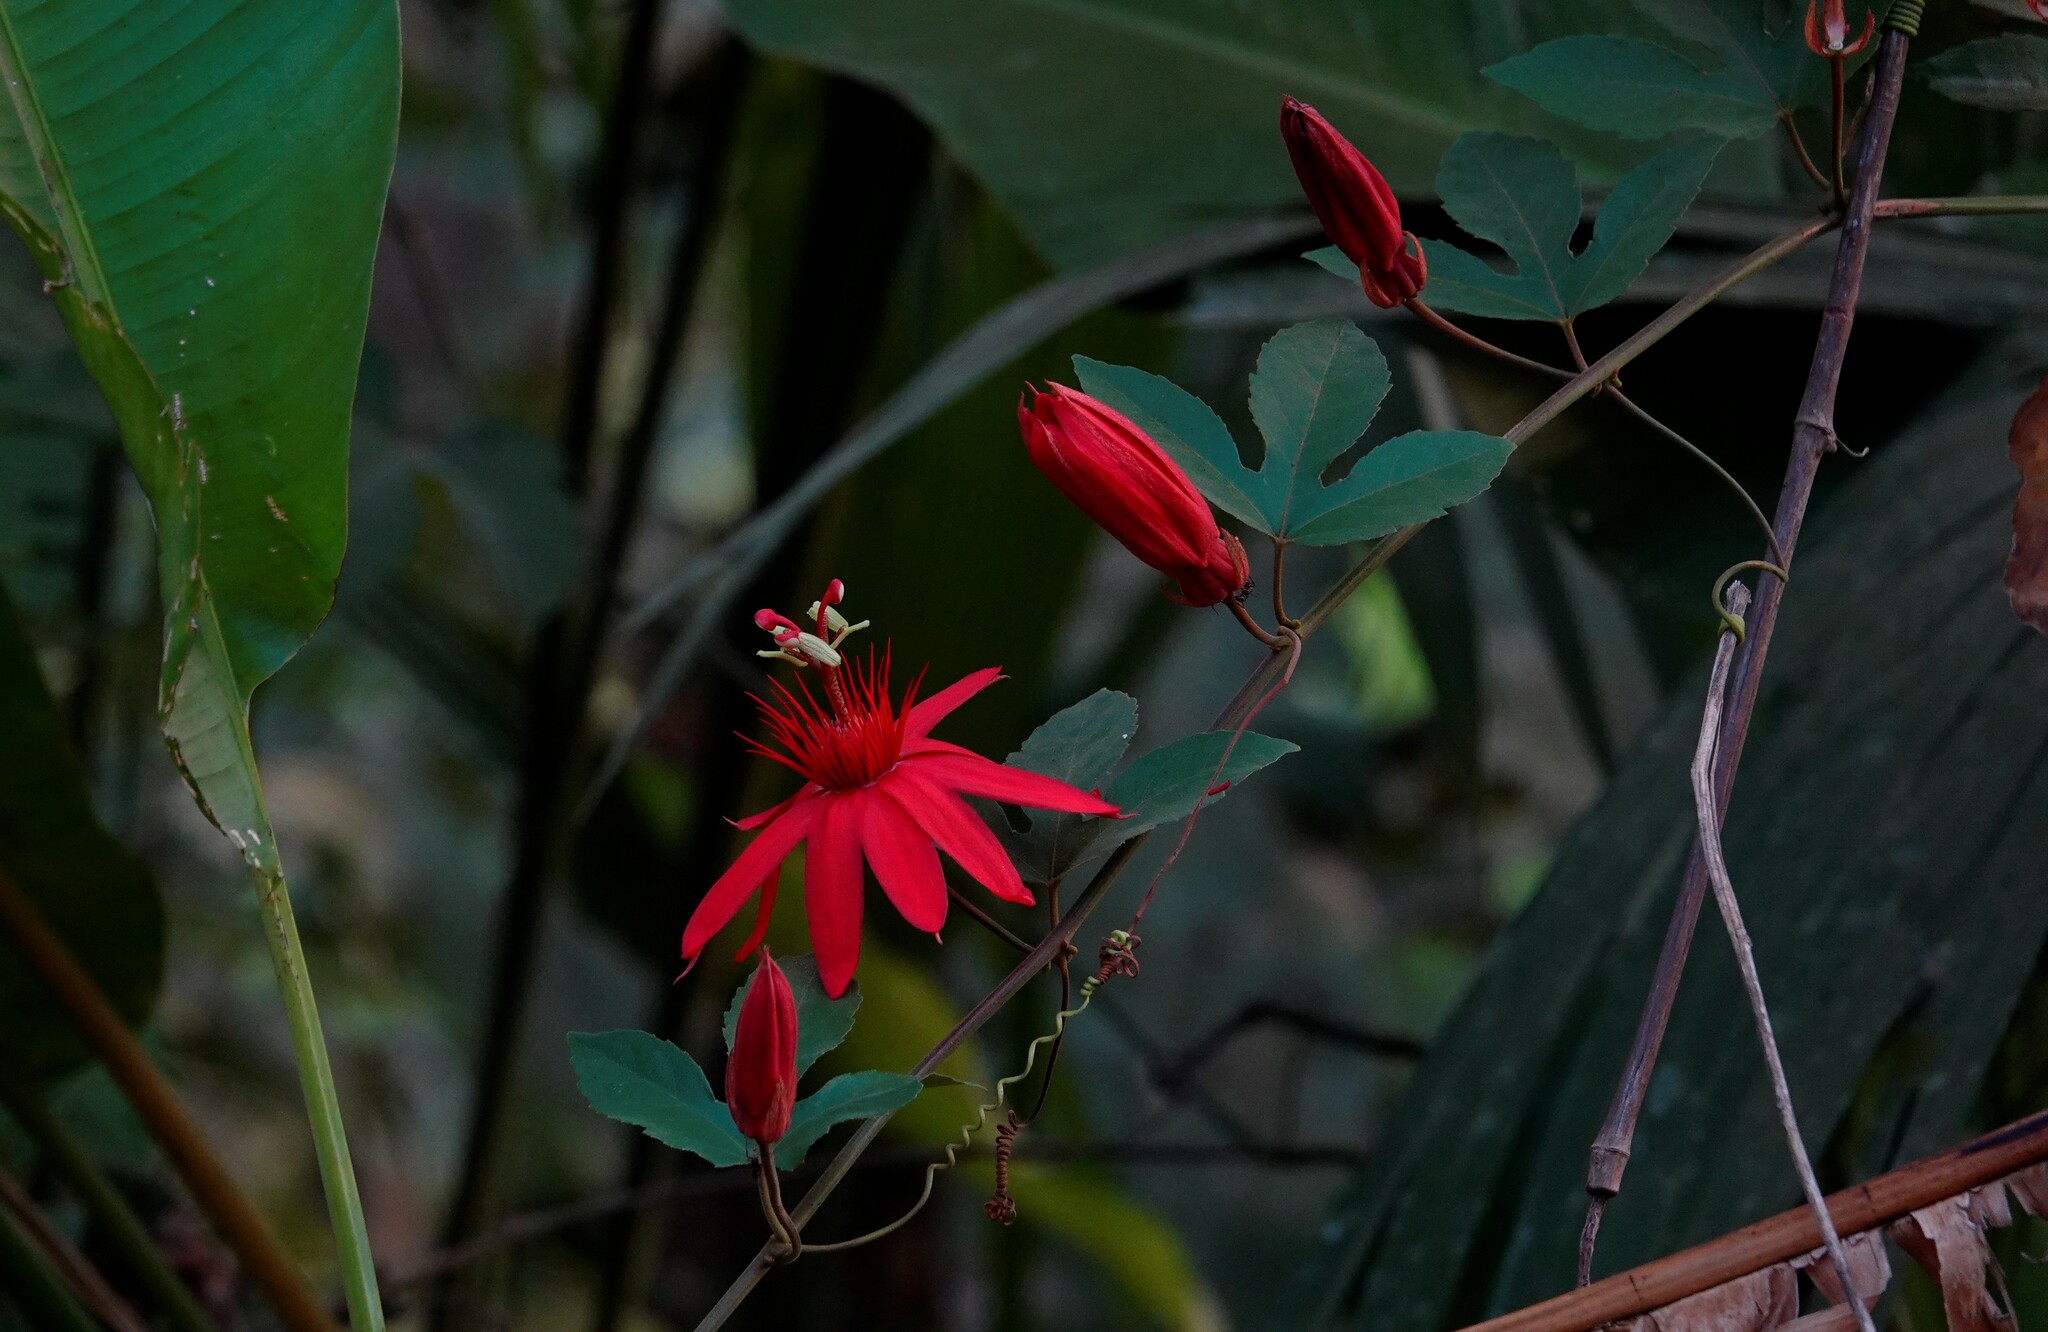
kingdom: Plantae
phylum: Tracheophyta
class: Magnoliopsida
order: Malpighiales
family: Passifloraceae
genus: Passiflora
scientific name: Passiflora vitifolia
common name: Perfumed passionflower
